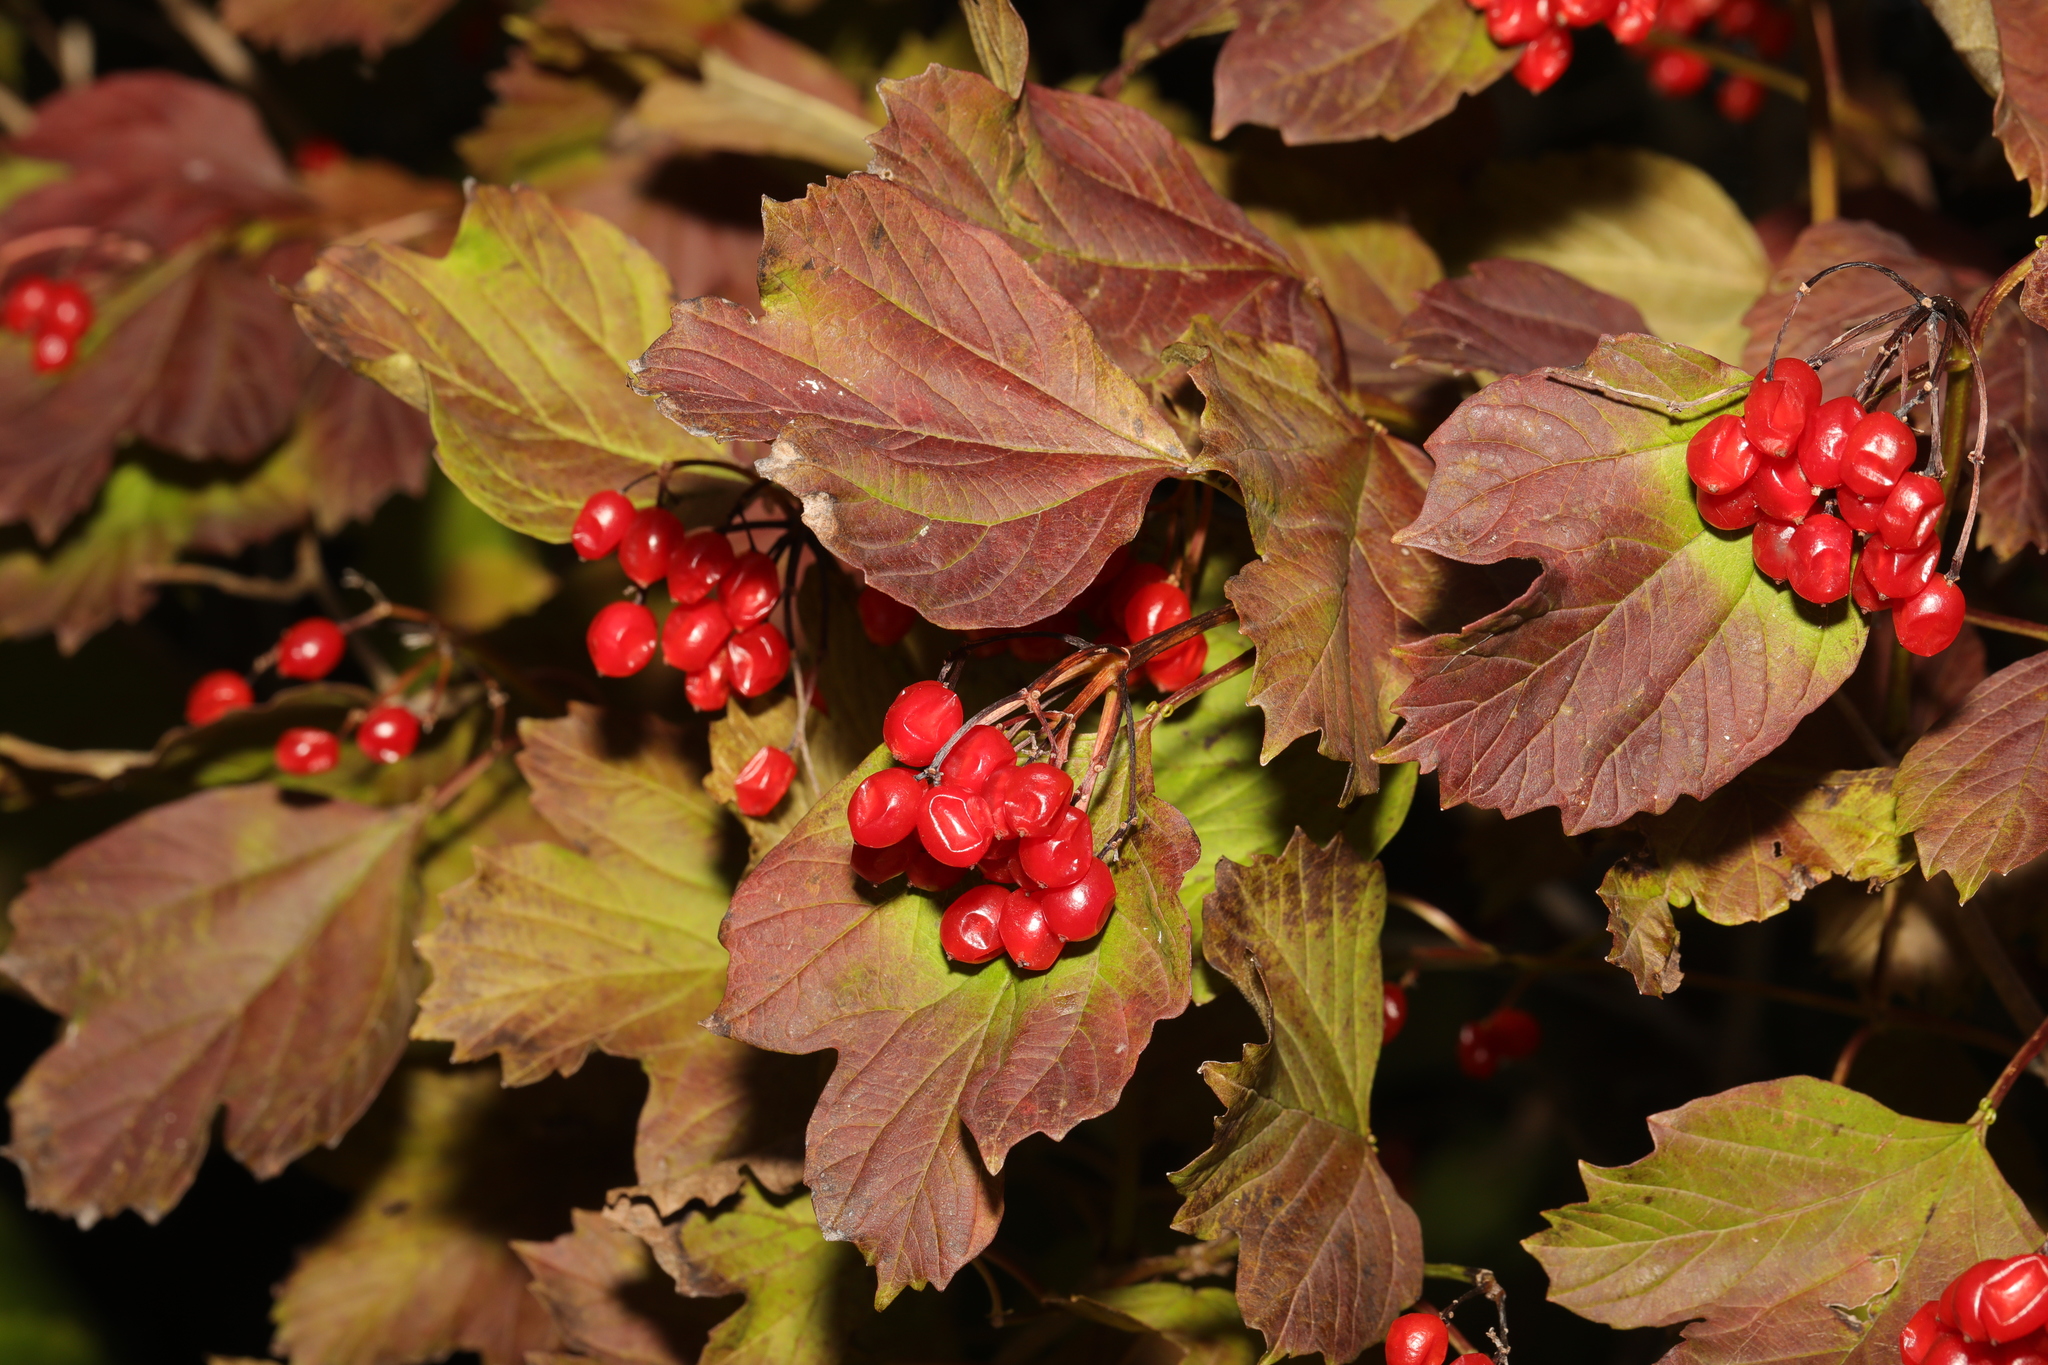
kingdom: Plantae
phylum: Tracheophyta
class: Magnoliopsida
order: Dipsacales
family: Viburnaceae
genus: Viburnum
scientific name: Viburnum opulus
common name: Guelder-rose
